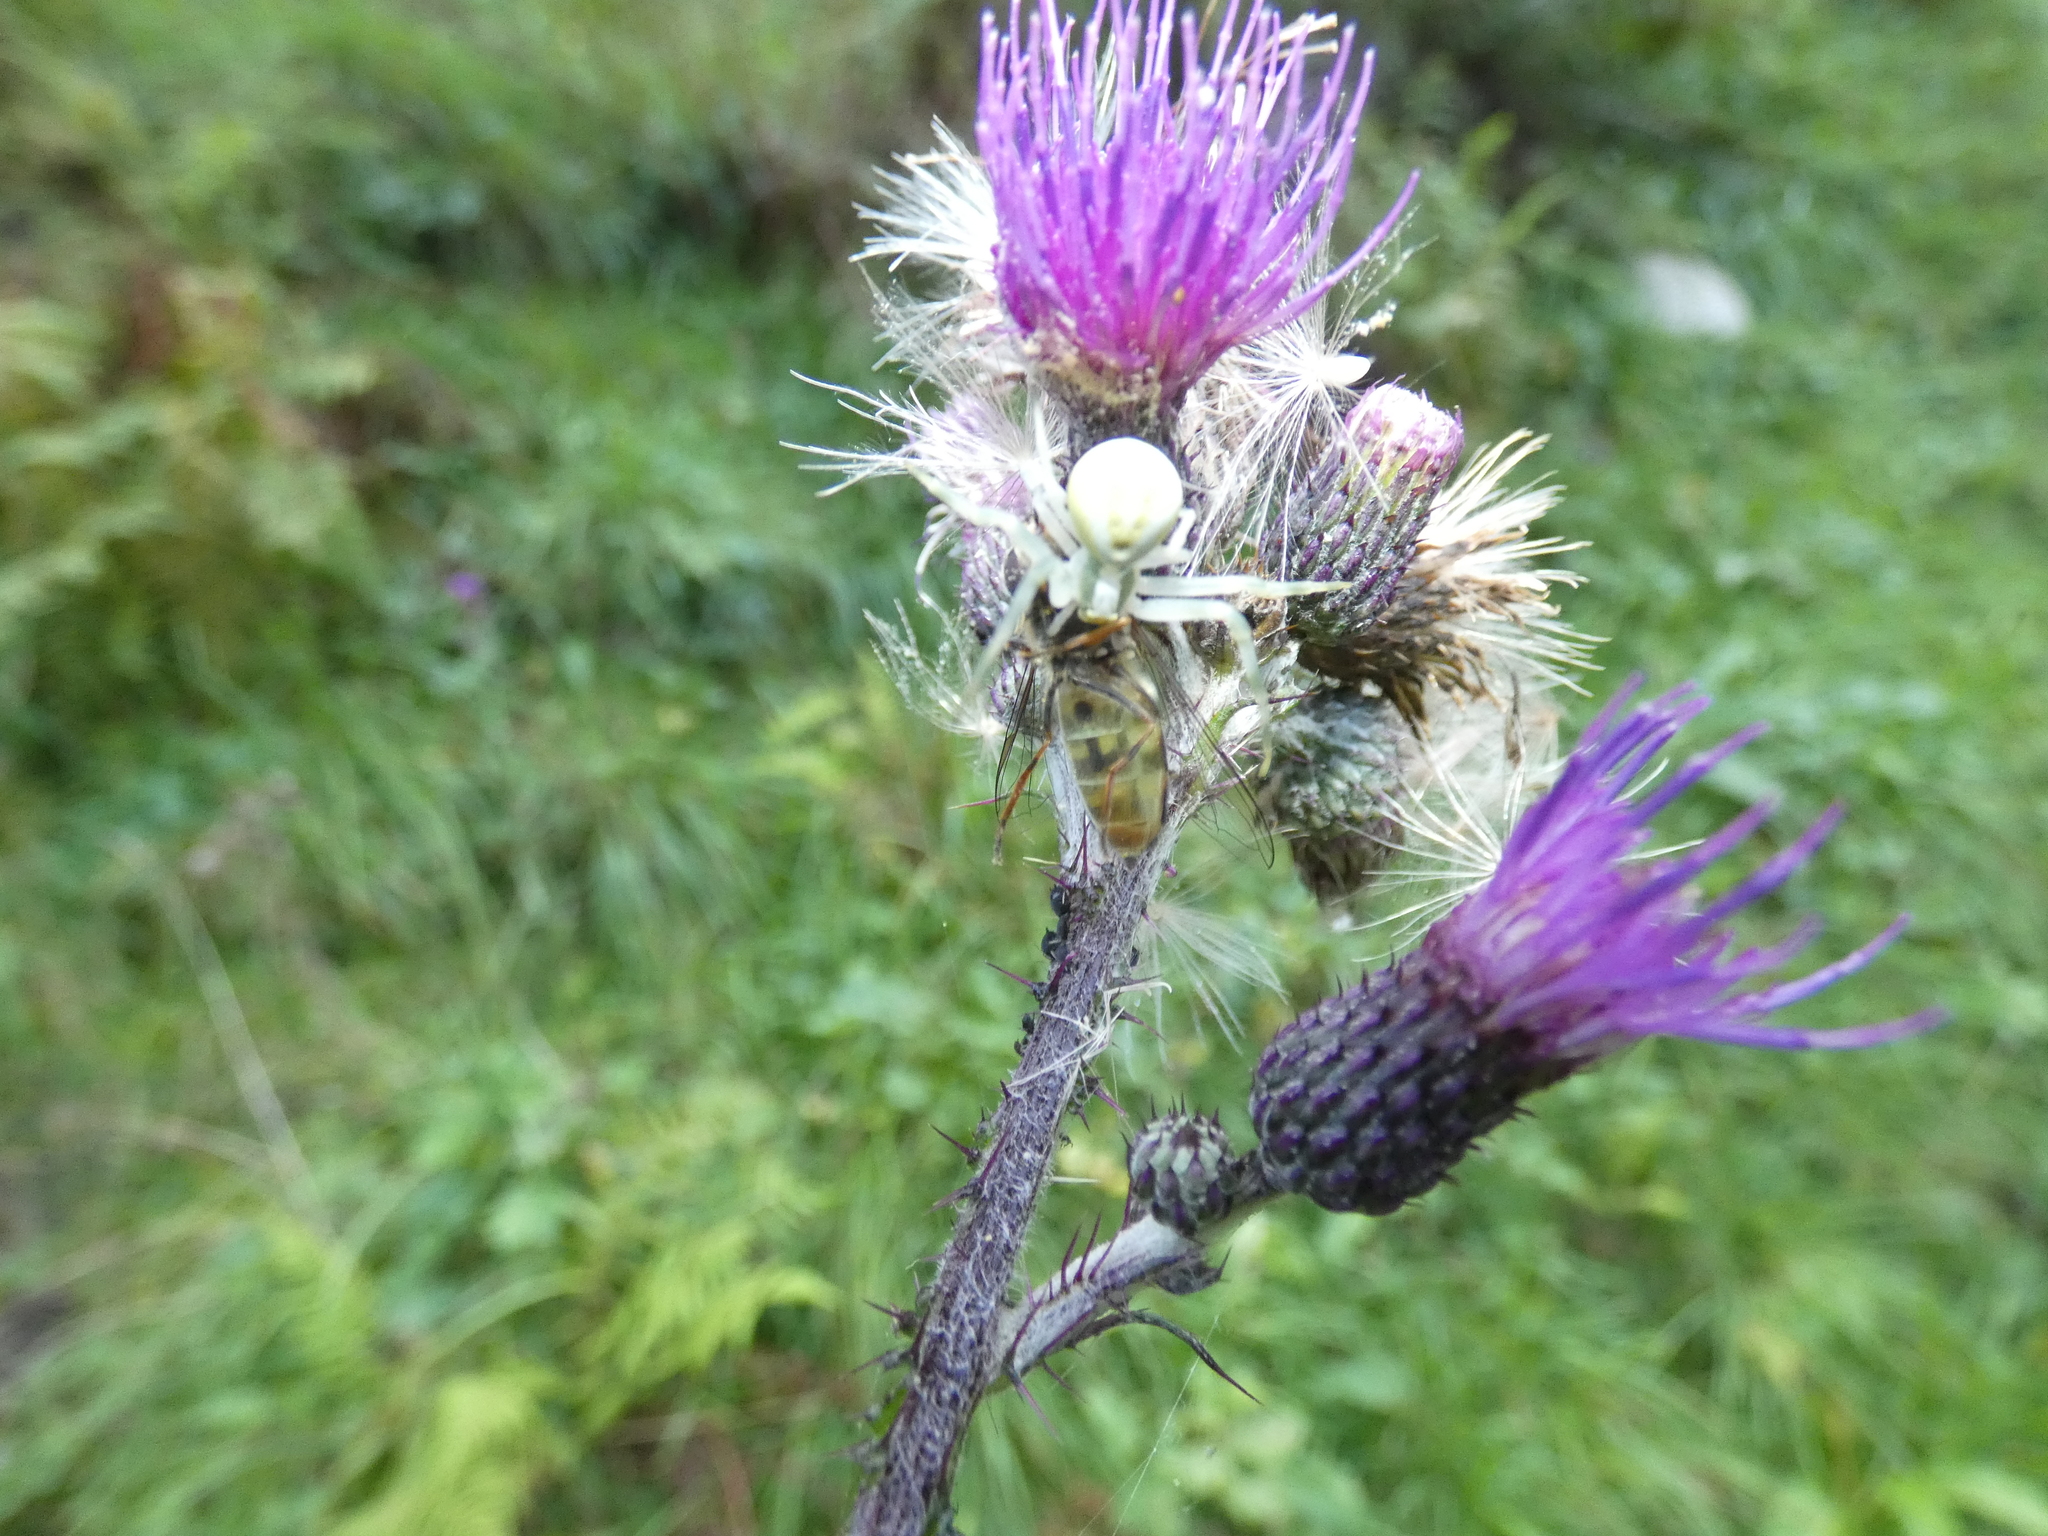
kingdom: Animalia
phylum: Arthropoda
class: Arachnida
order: Araneae
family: Thomisidae
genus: Misumena
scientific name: Misumena vatia
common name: Goldenrod crab spider
